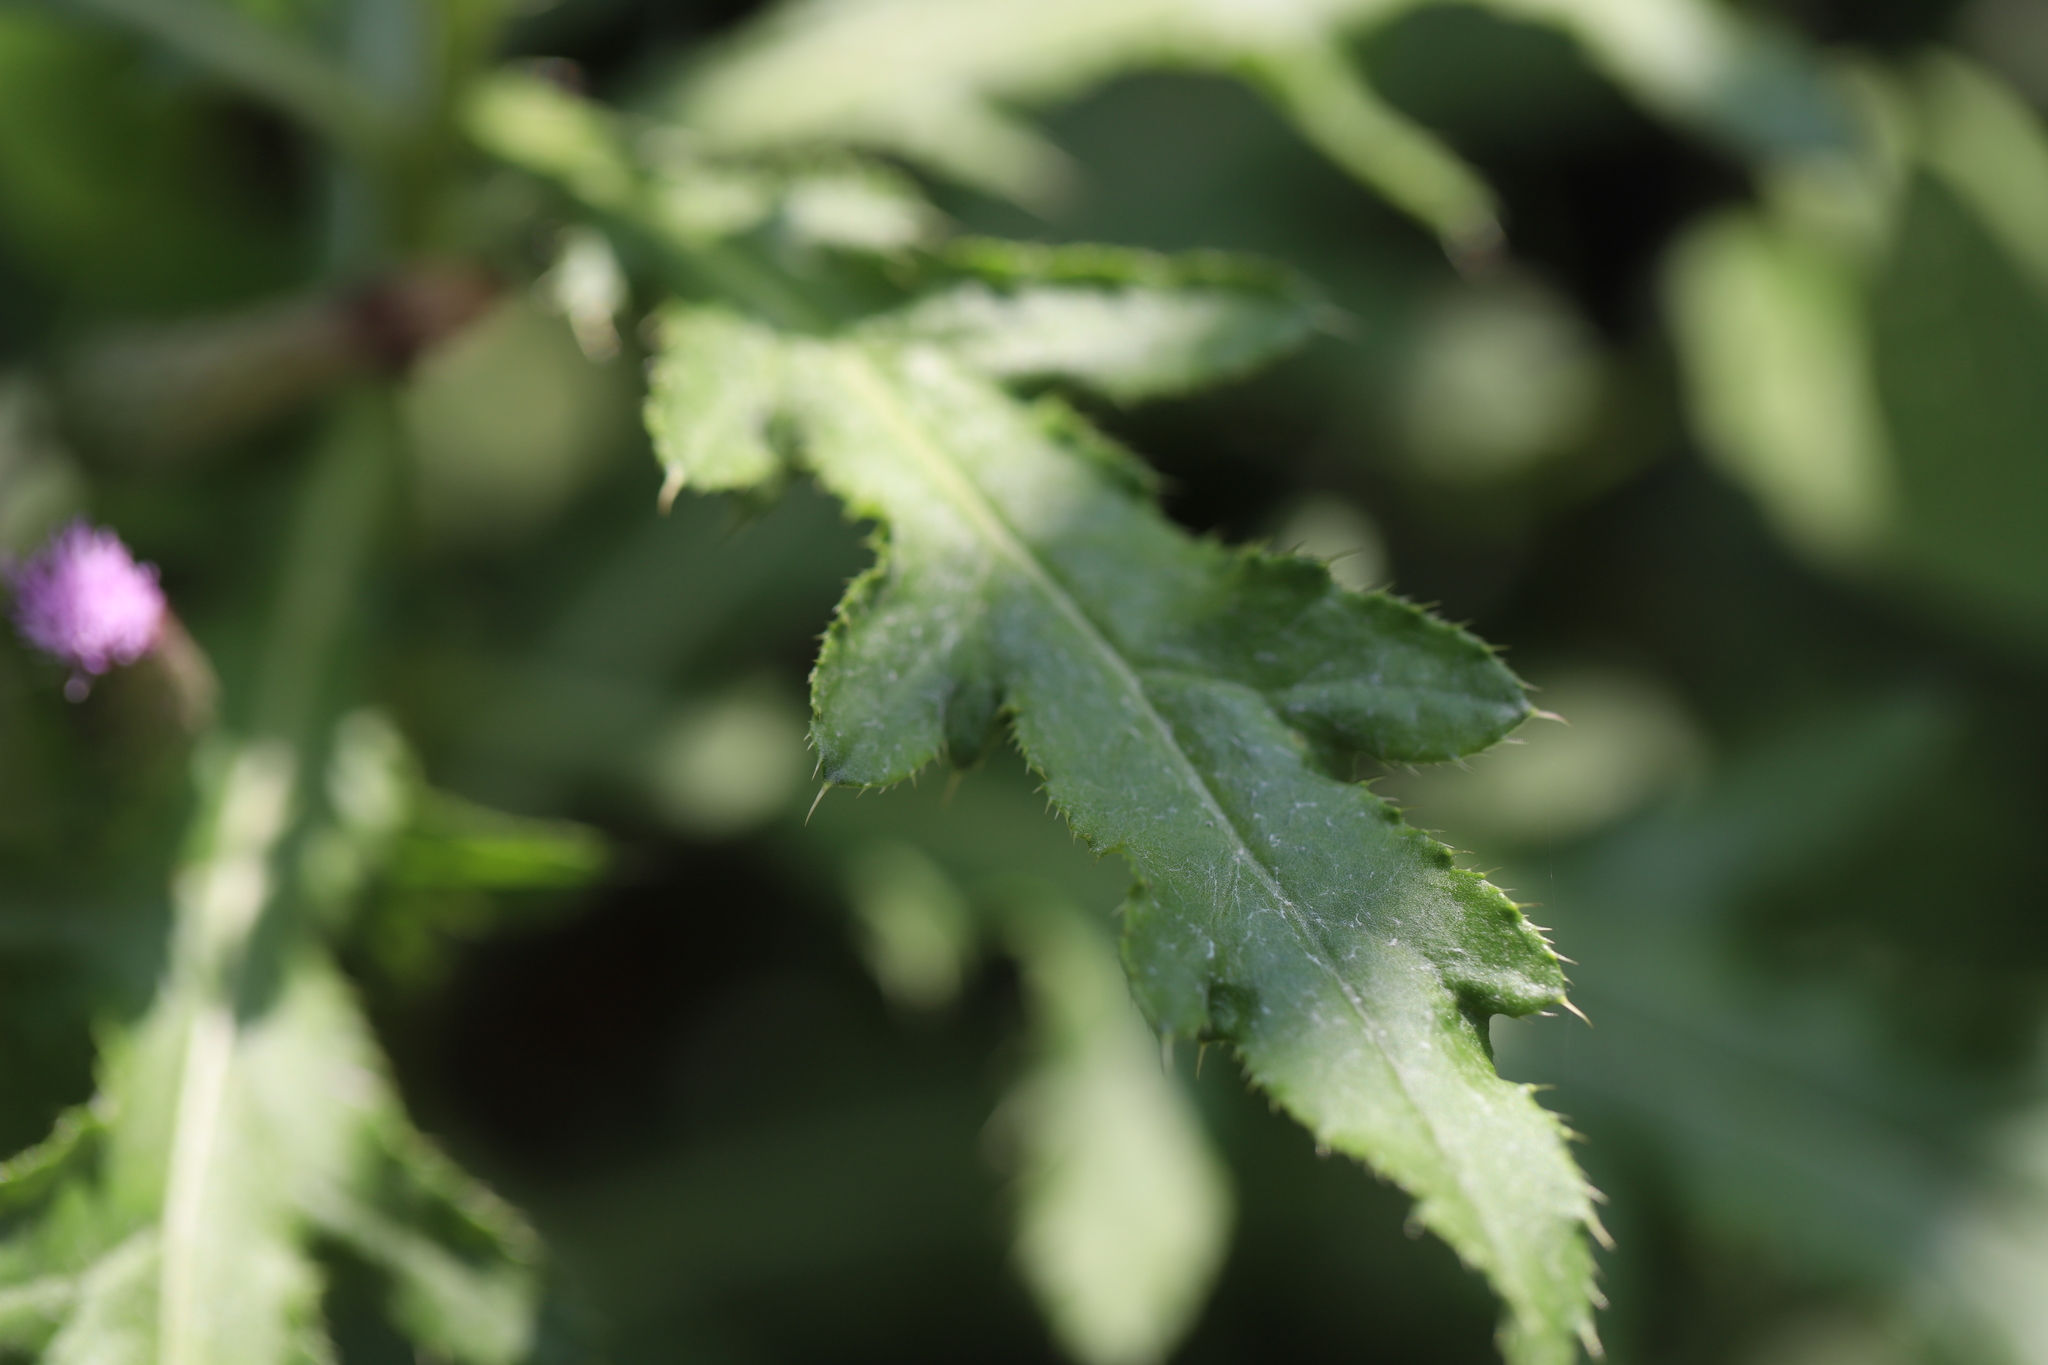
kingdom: Plantae
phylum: Tracheophyta
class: Magnoliopsida
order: Asterales
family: Asteraceae
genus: Cirsium
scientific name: Cirsium arvense
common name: Creeping thistle
